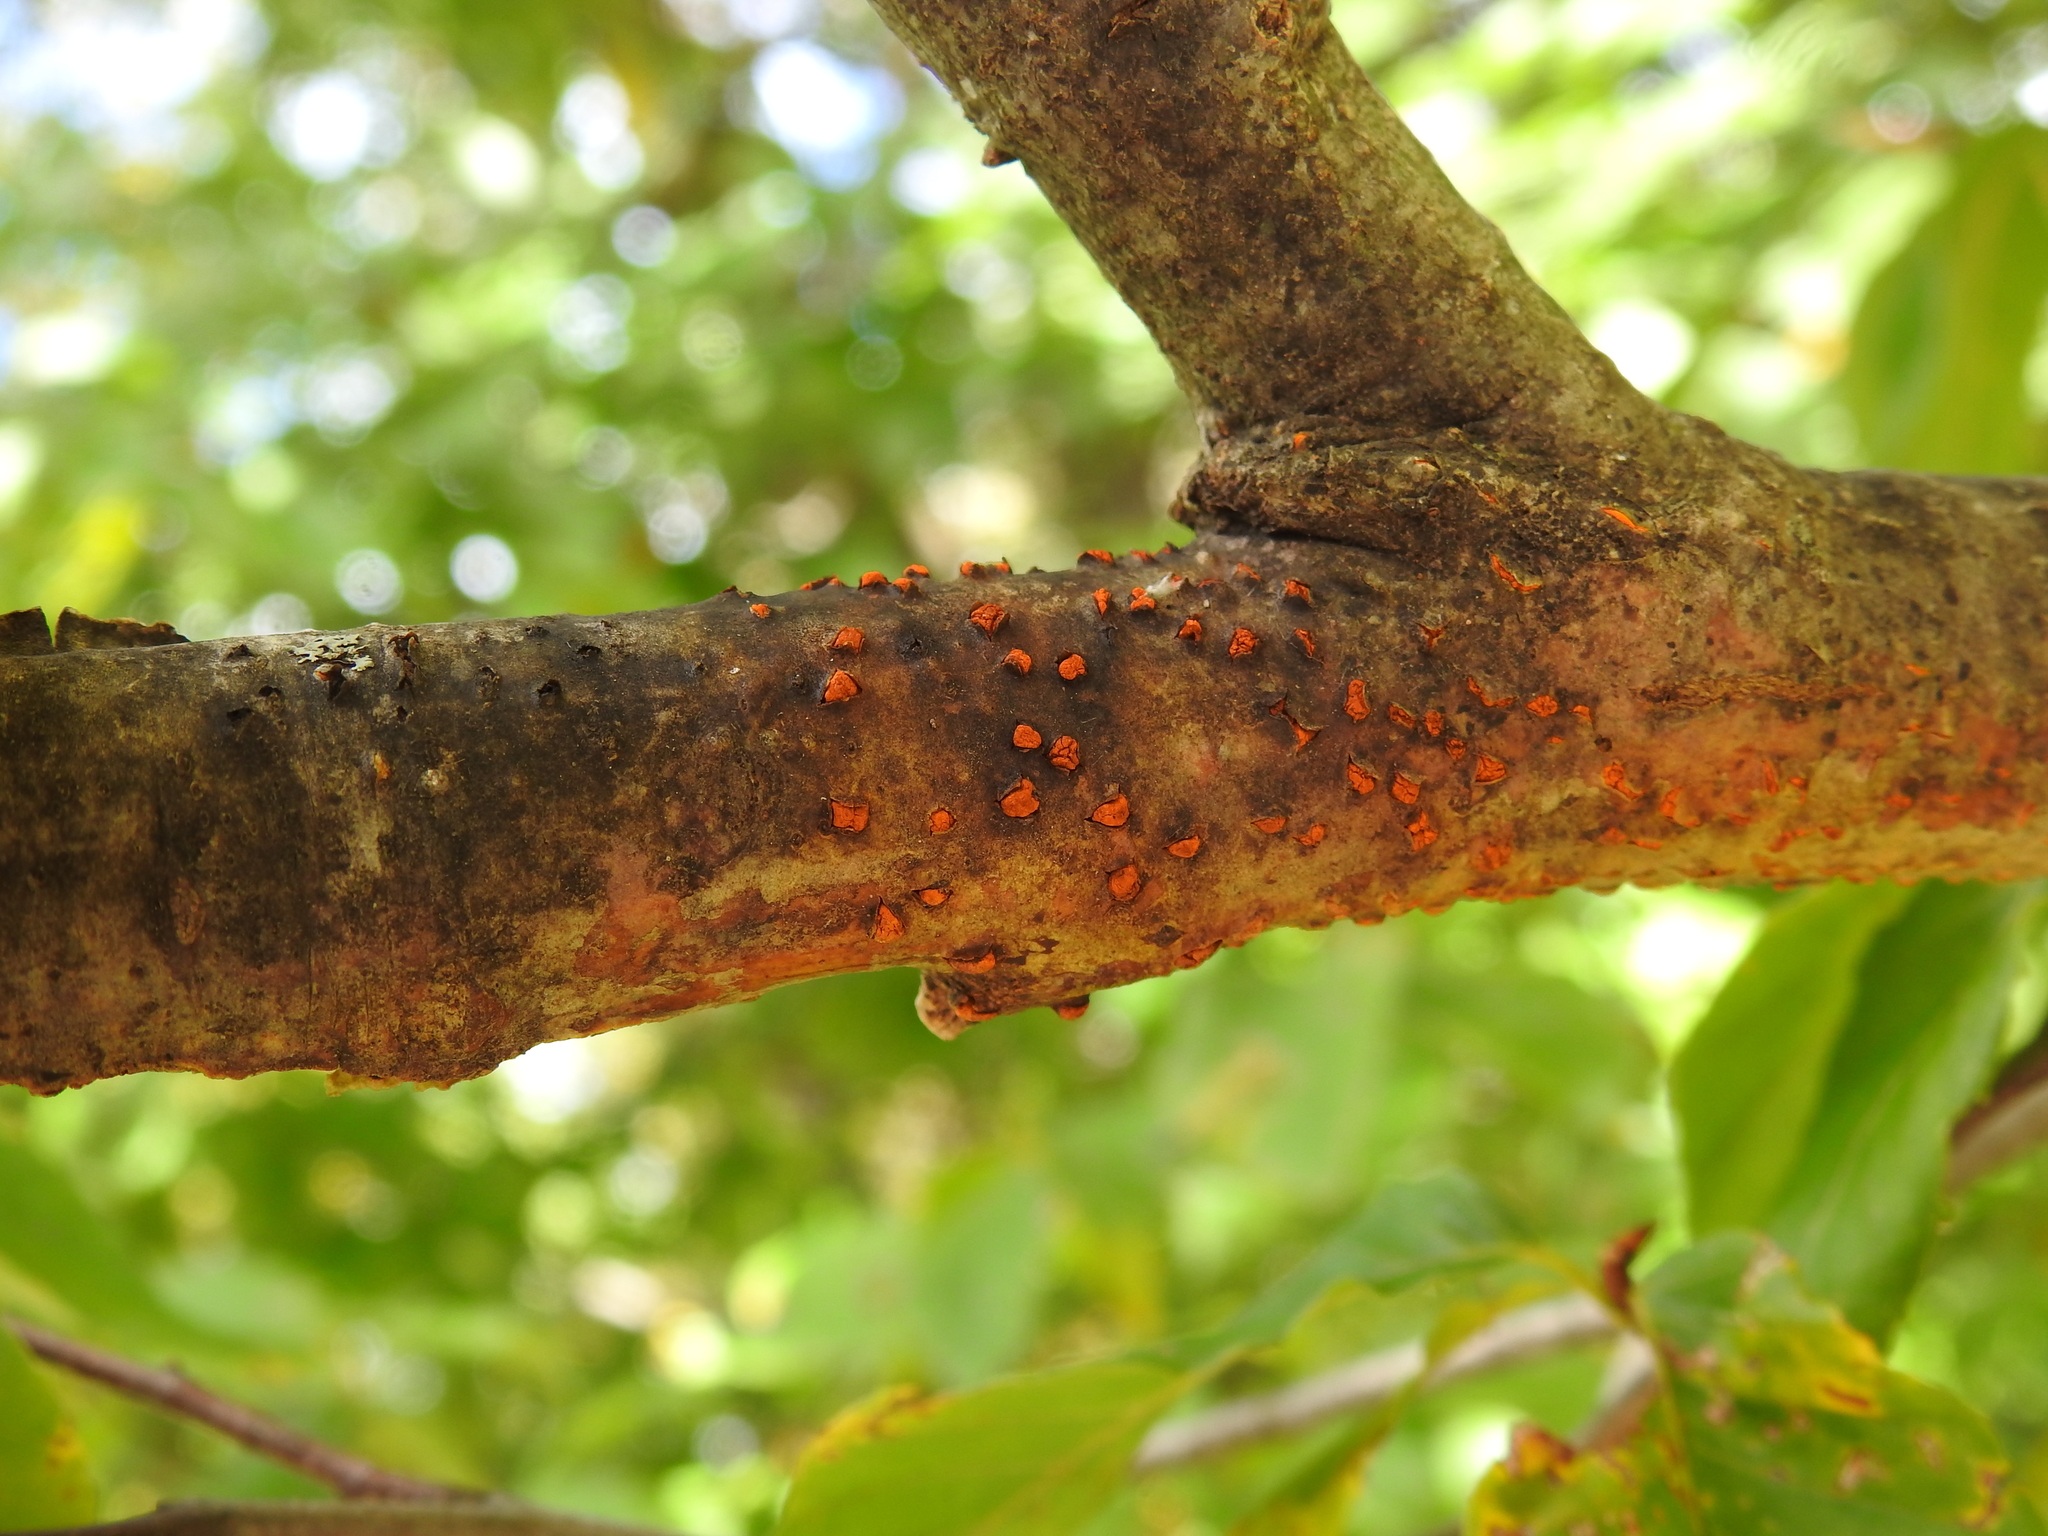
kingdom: Fungi
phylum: Ascomycota
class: Sordariomycetes
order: Diaporthales
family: Cryphonectriaceae
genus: Amphilogia
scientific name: Amphilogia gyrosa
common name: Orange hobnail canker
